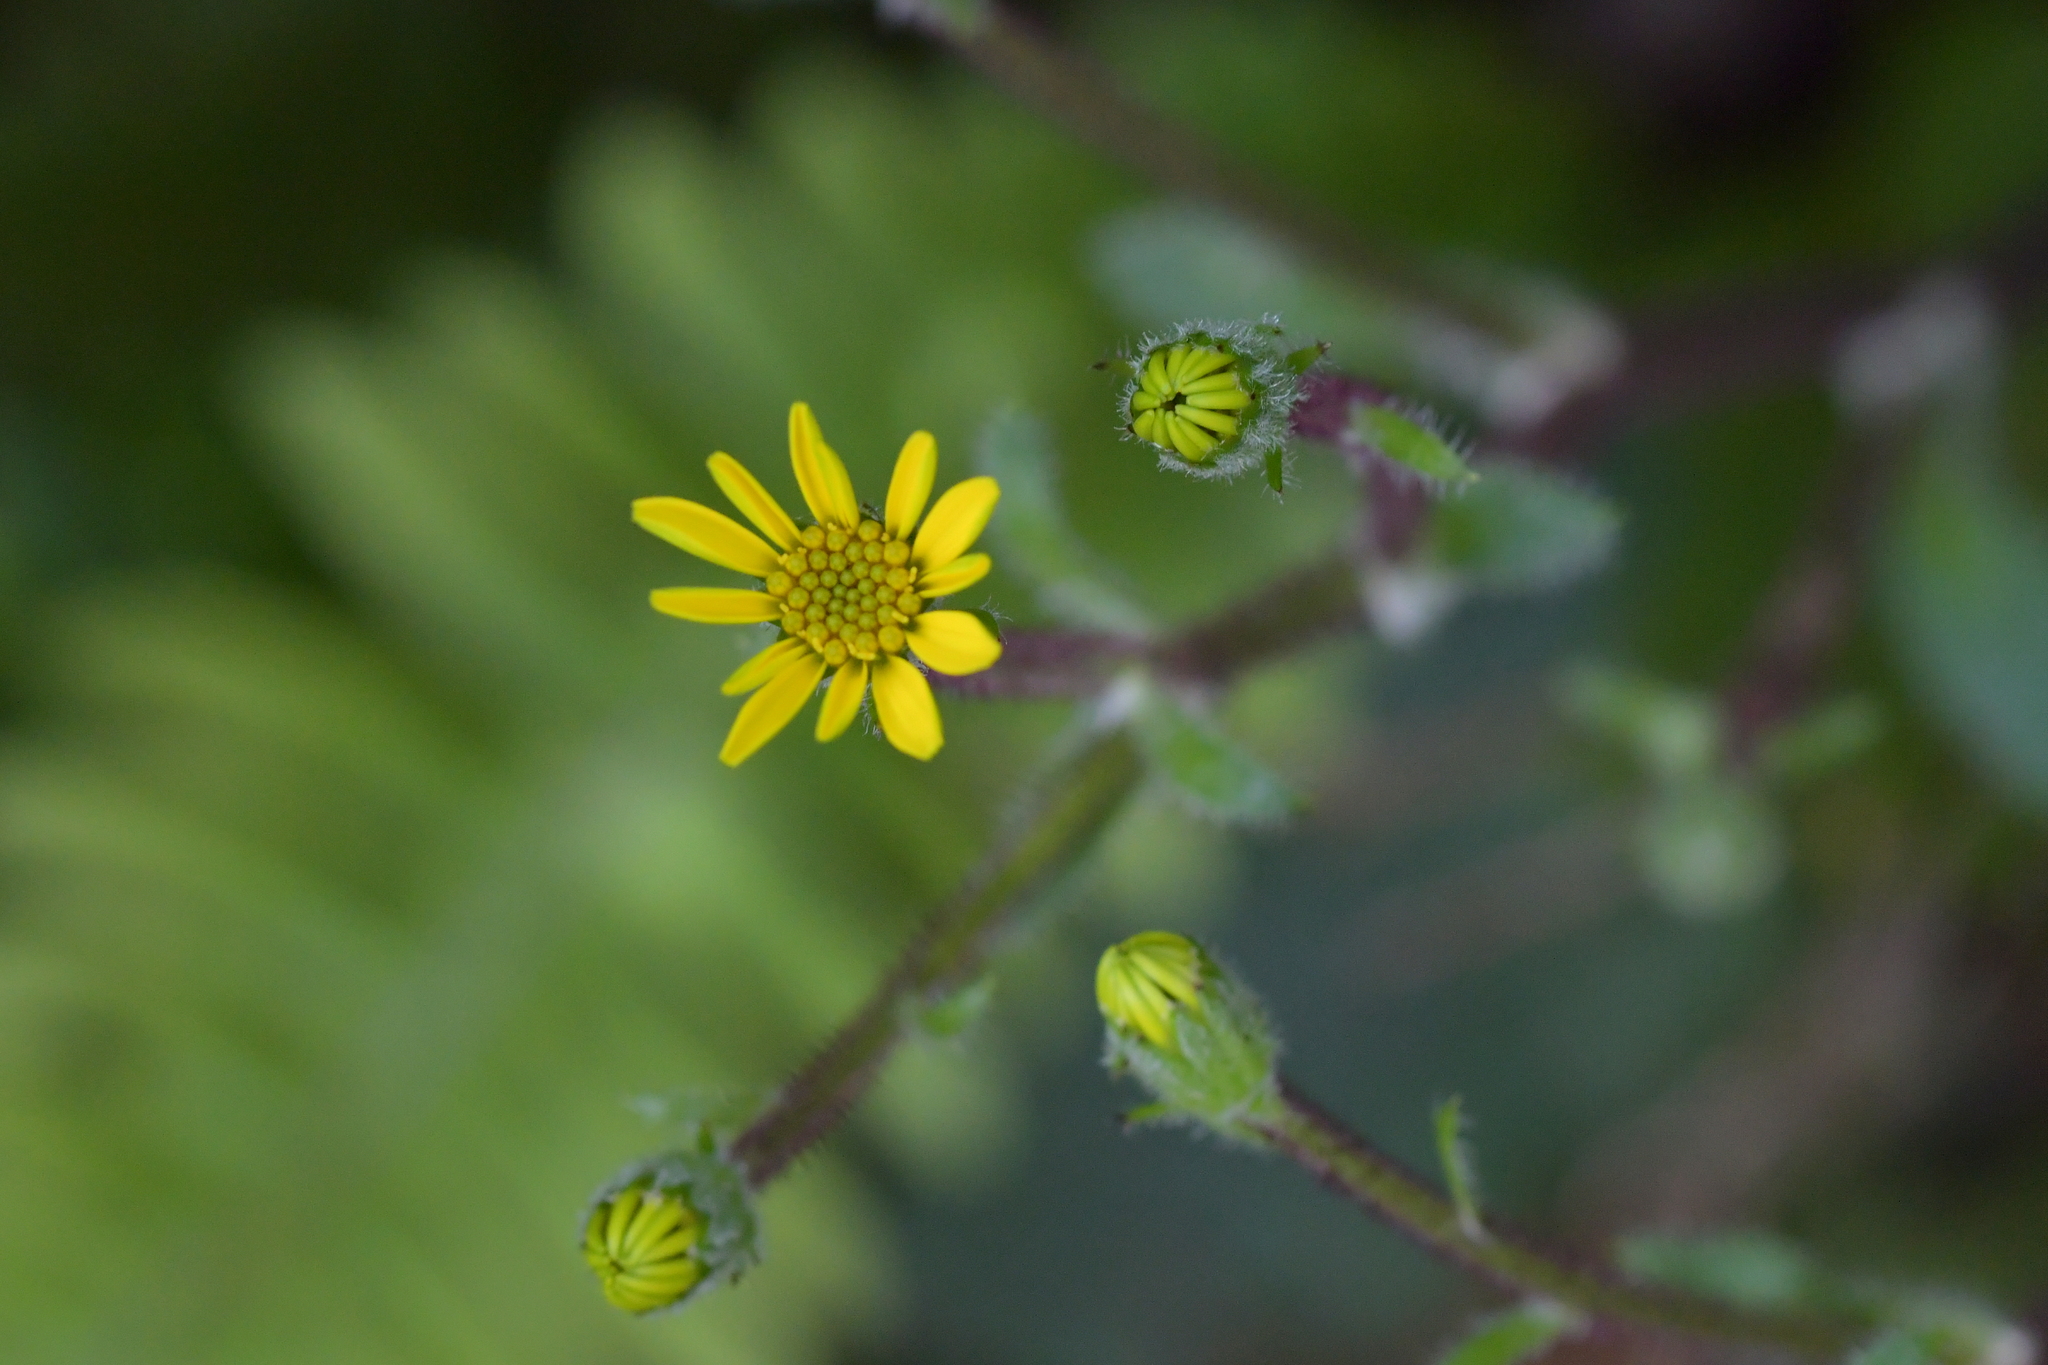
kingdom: Plantae
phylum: Tracheophyta
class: Magnoliopsida
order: Asterales
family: Asteraceae
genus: Brachyglottis
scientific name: Brachyglottis lagopus
